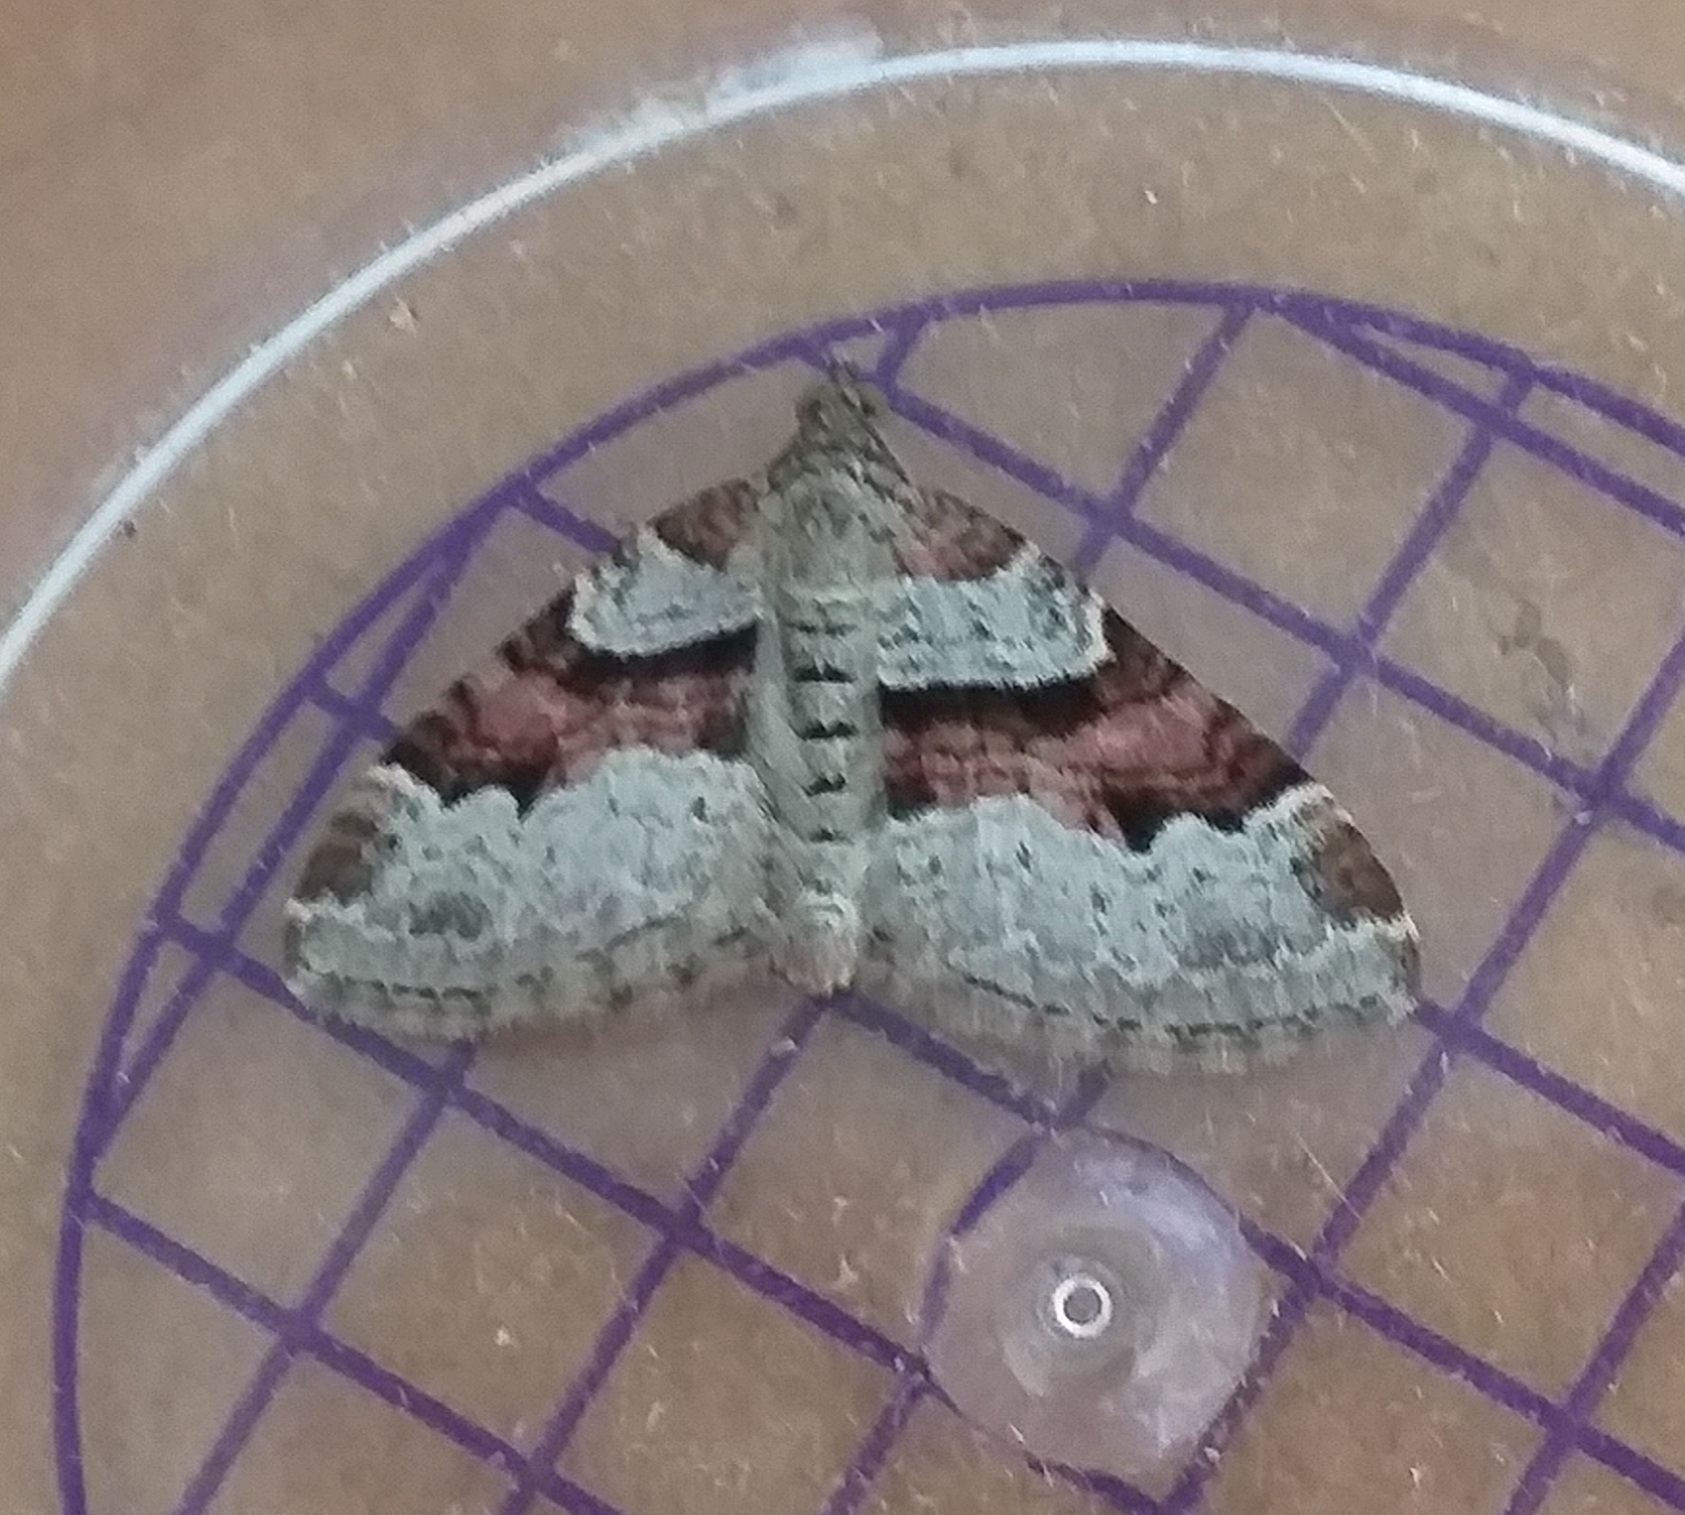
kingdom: Animalia
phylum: Arthropoda
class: Insecta
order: Lepidoptera
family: Geometridae
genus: Xanthorhoe
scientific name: Xanthorhoe designata
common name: Flame carpet
